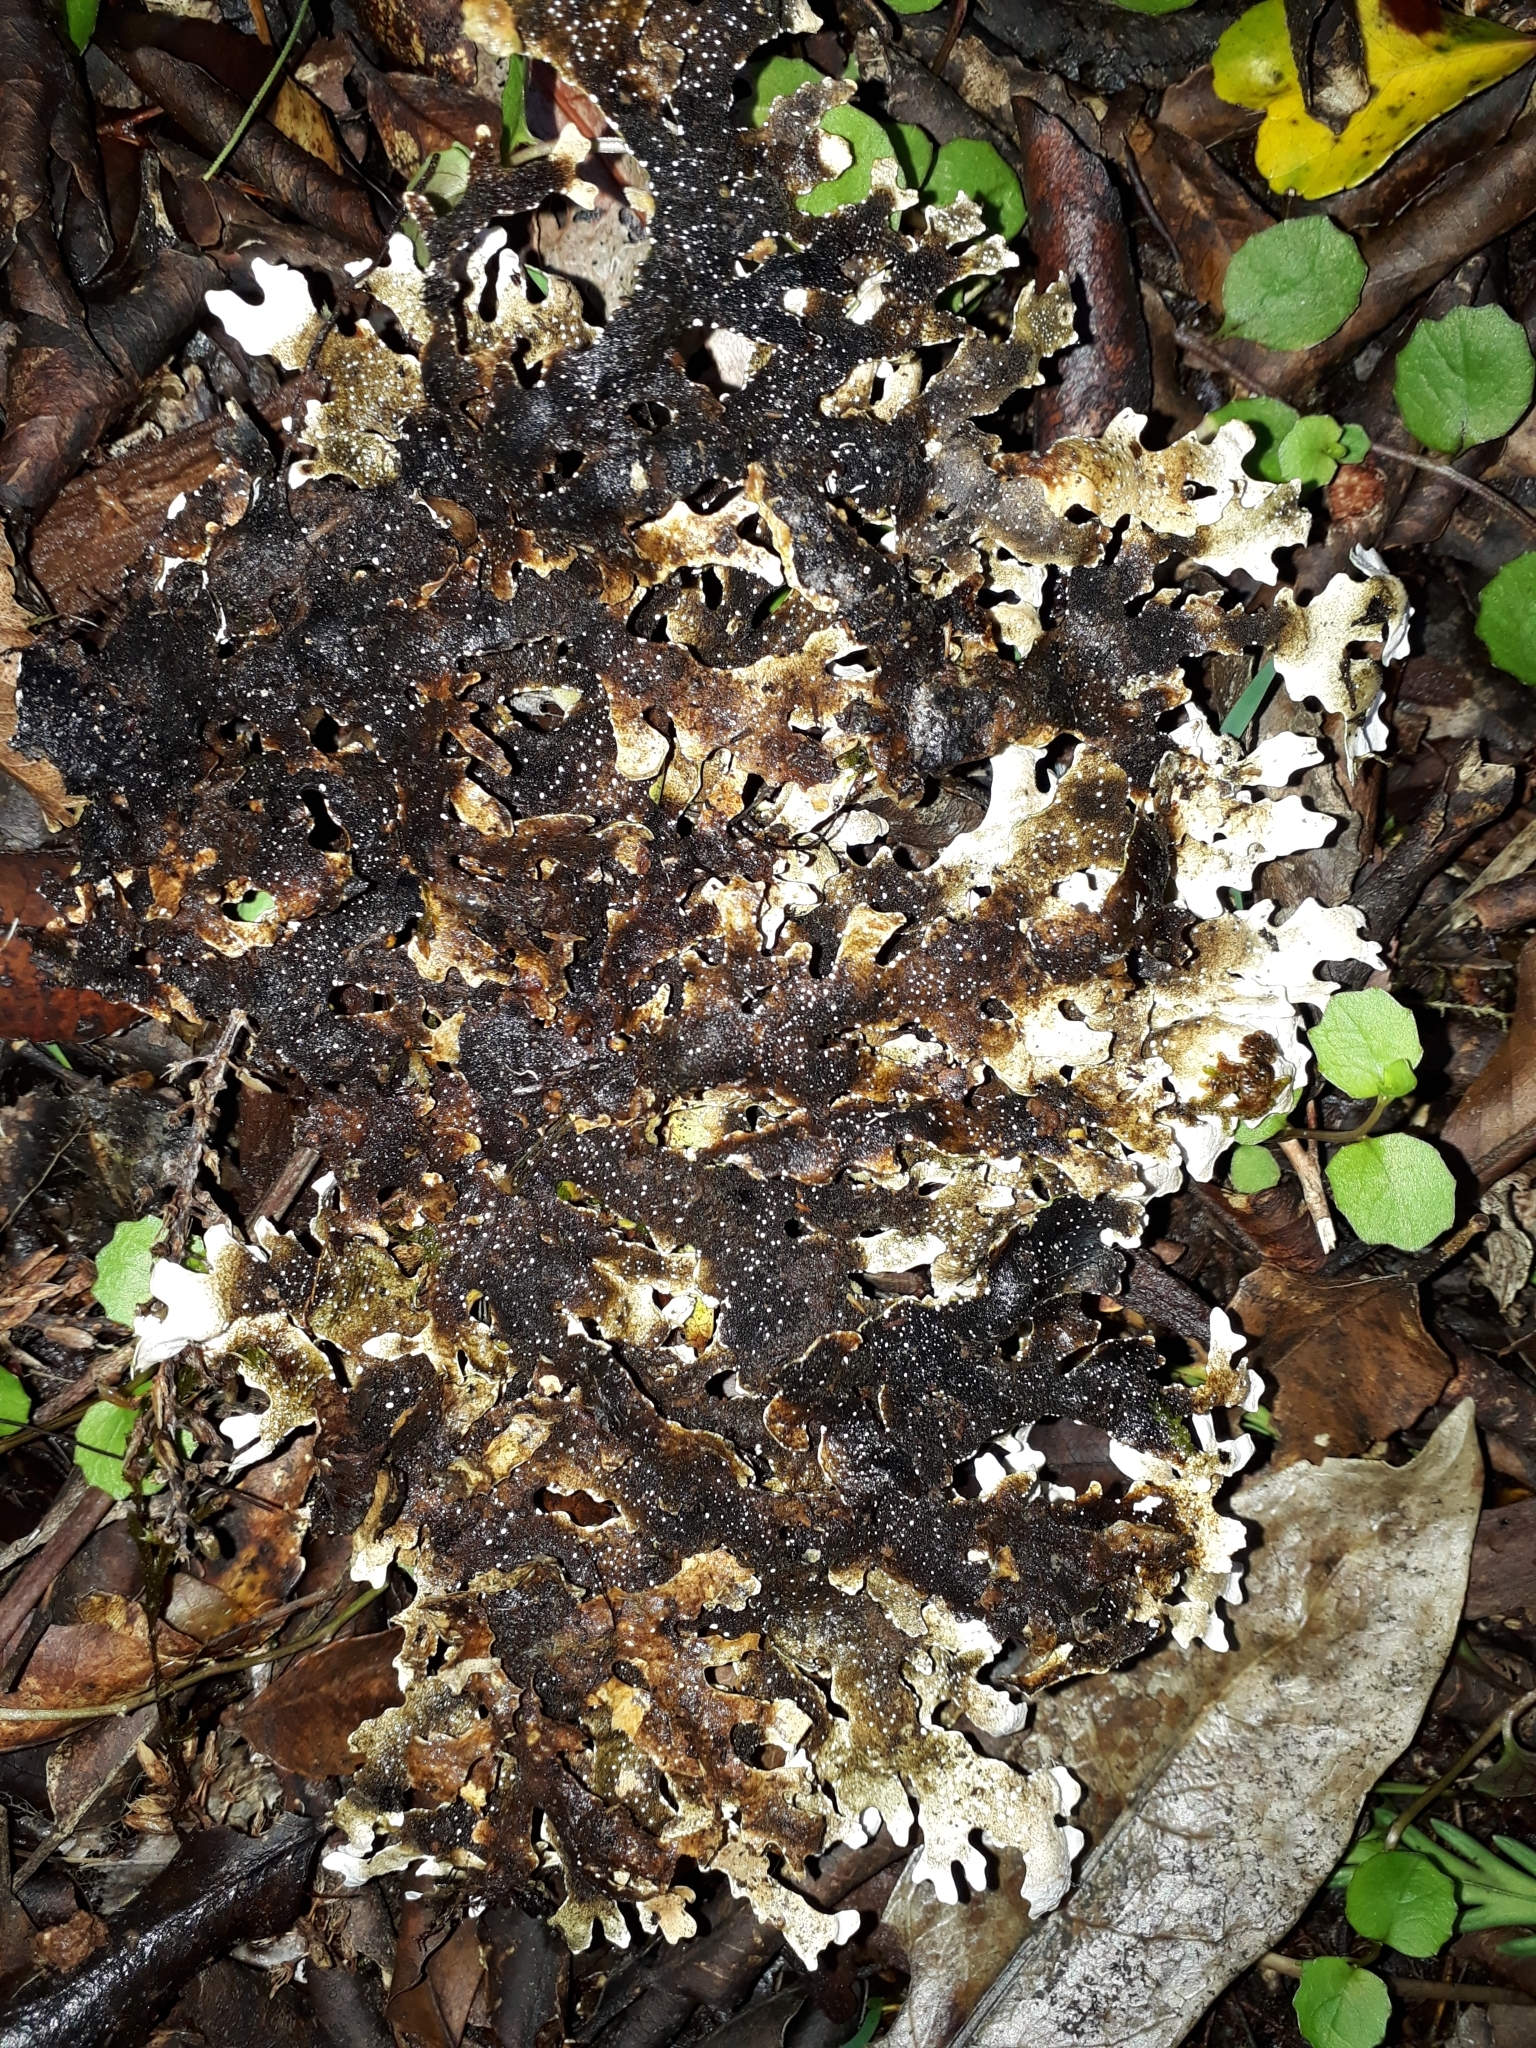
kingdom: Fungi
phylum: Ascomycota
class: Lecanoromycetes
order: Peltigerales
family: Lobariaceae
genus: Pseudocyphellaria
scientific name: Pseudocyphellaria homeophylla
